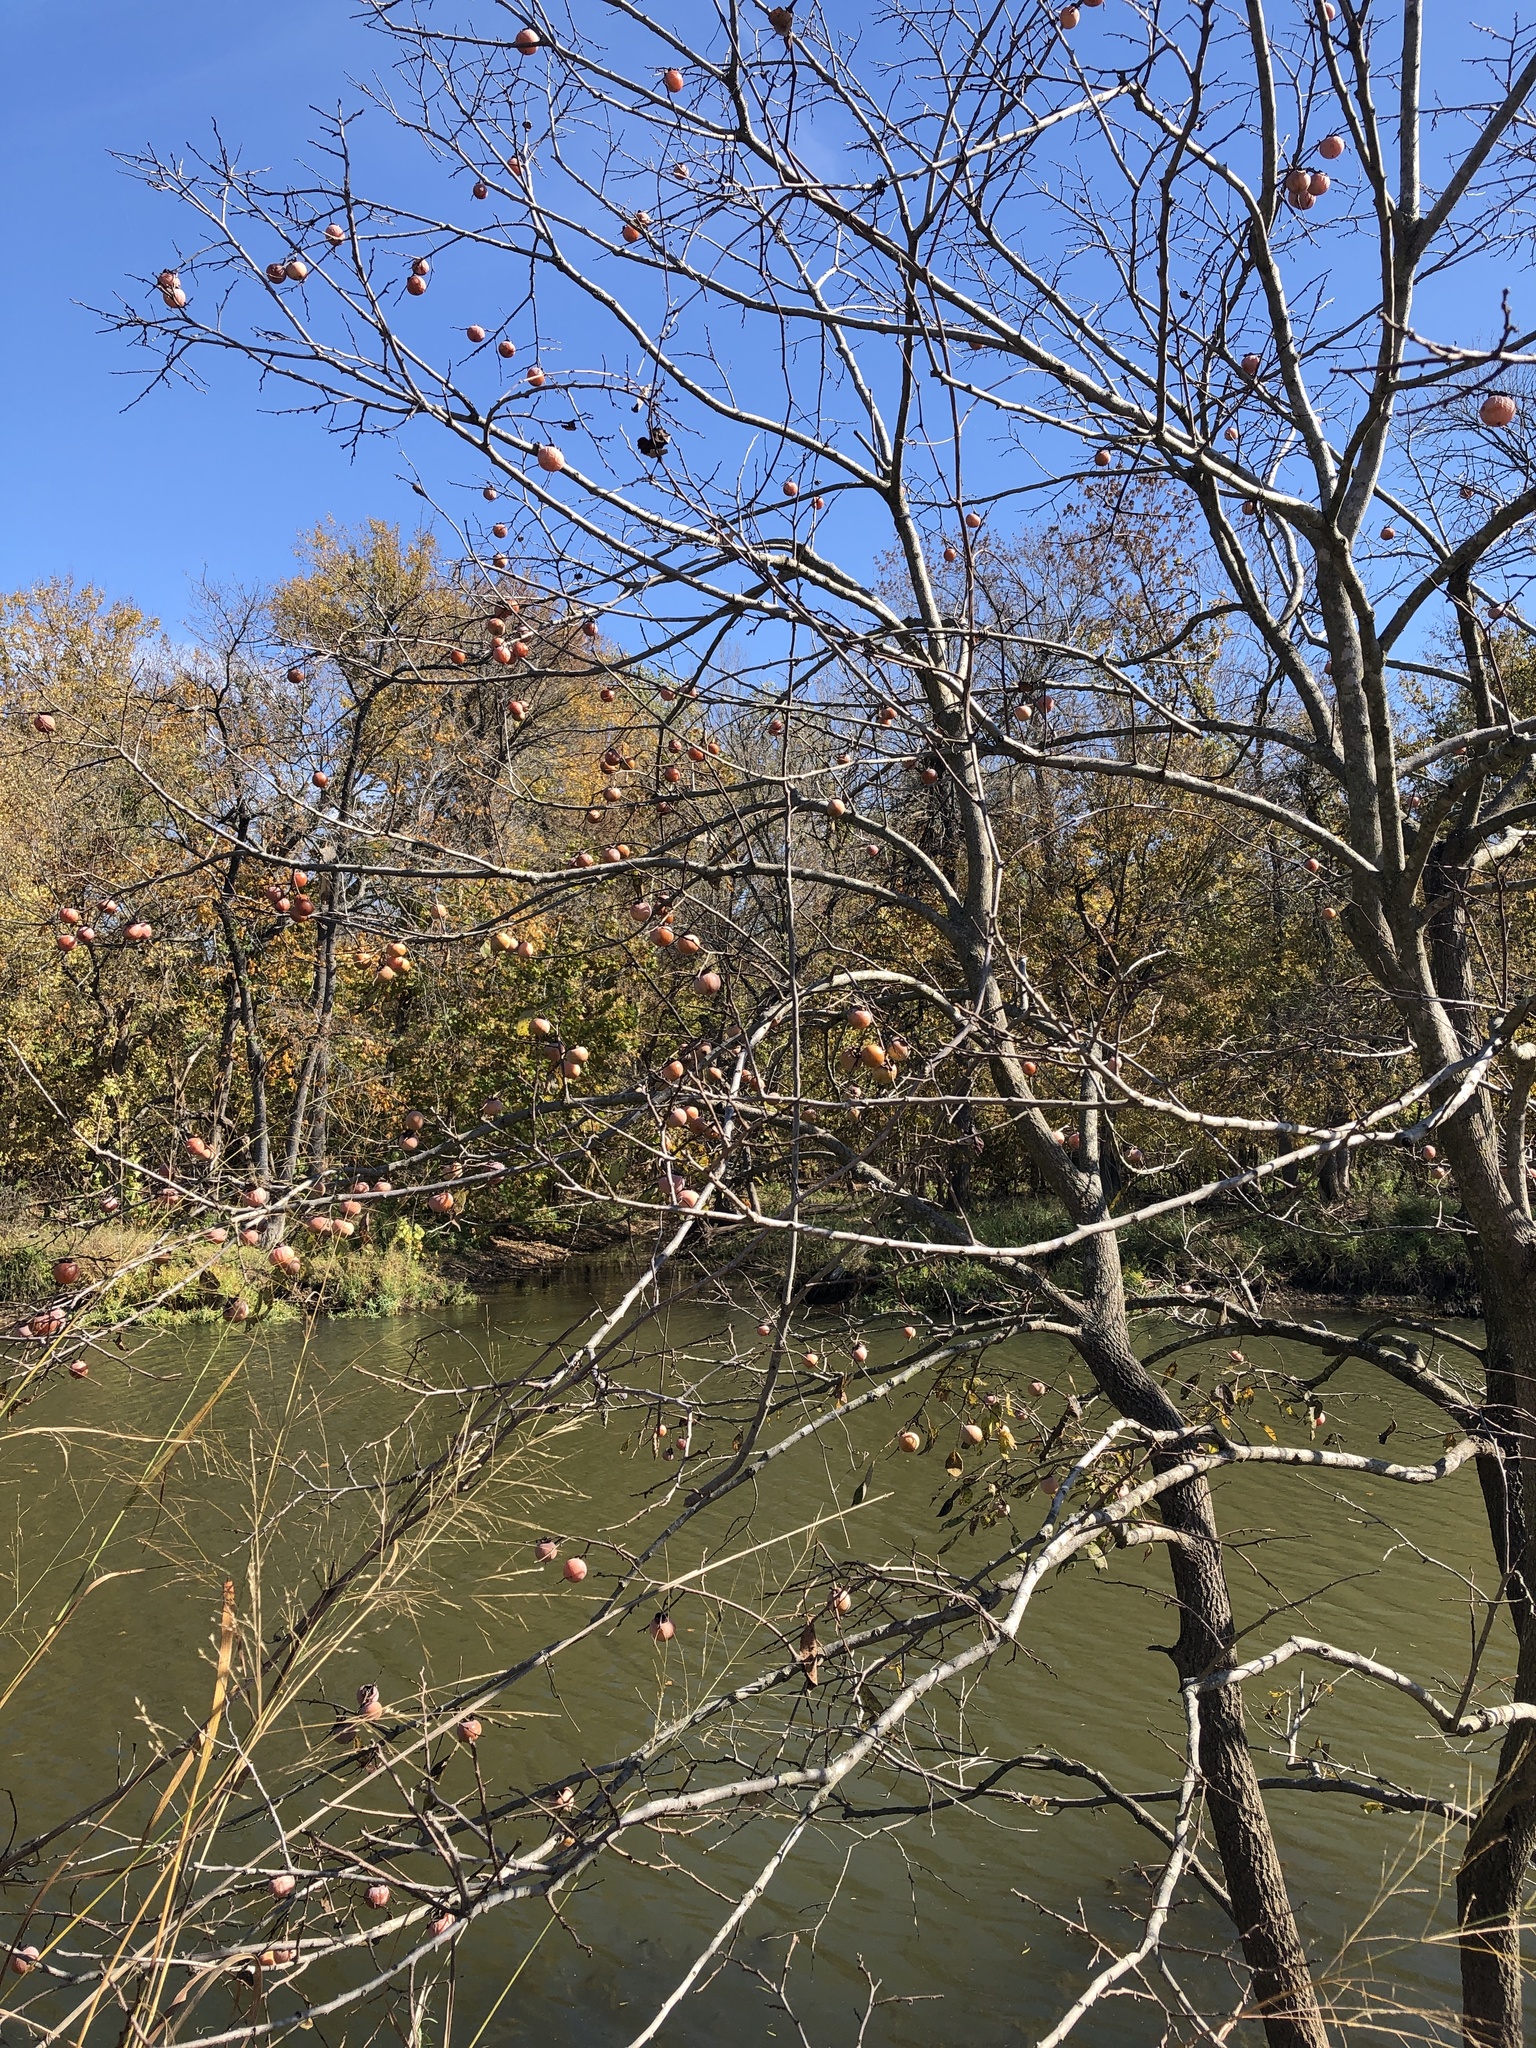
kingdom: Plantae
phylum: Tracheophyta
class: Magnoliopsida
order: Ericales
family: Ebenaceae
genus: Diospyros
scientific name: Diospyros virginiana
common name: Persimmon
